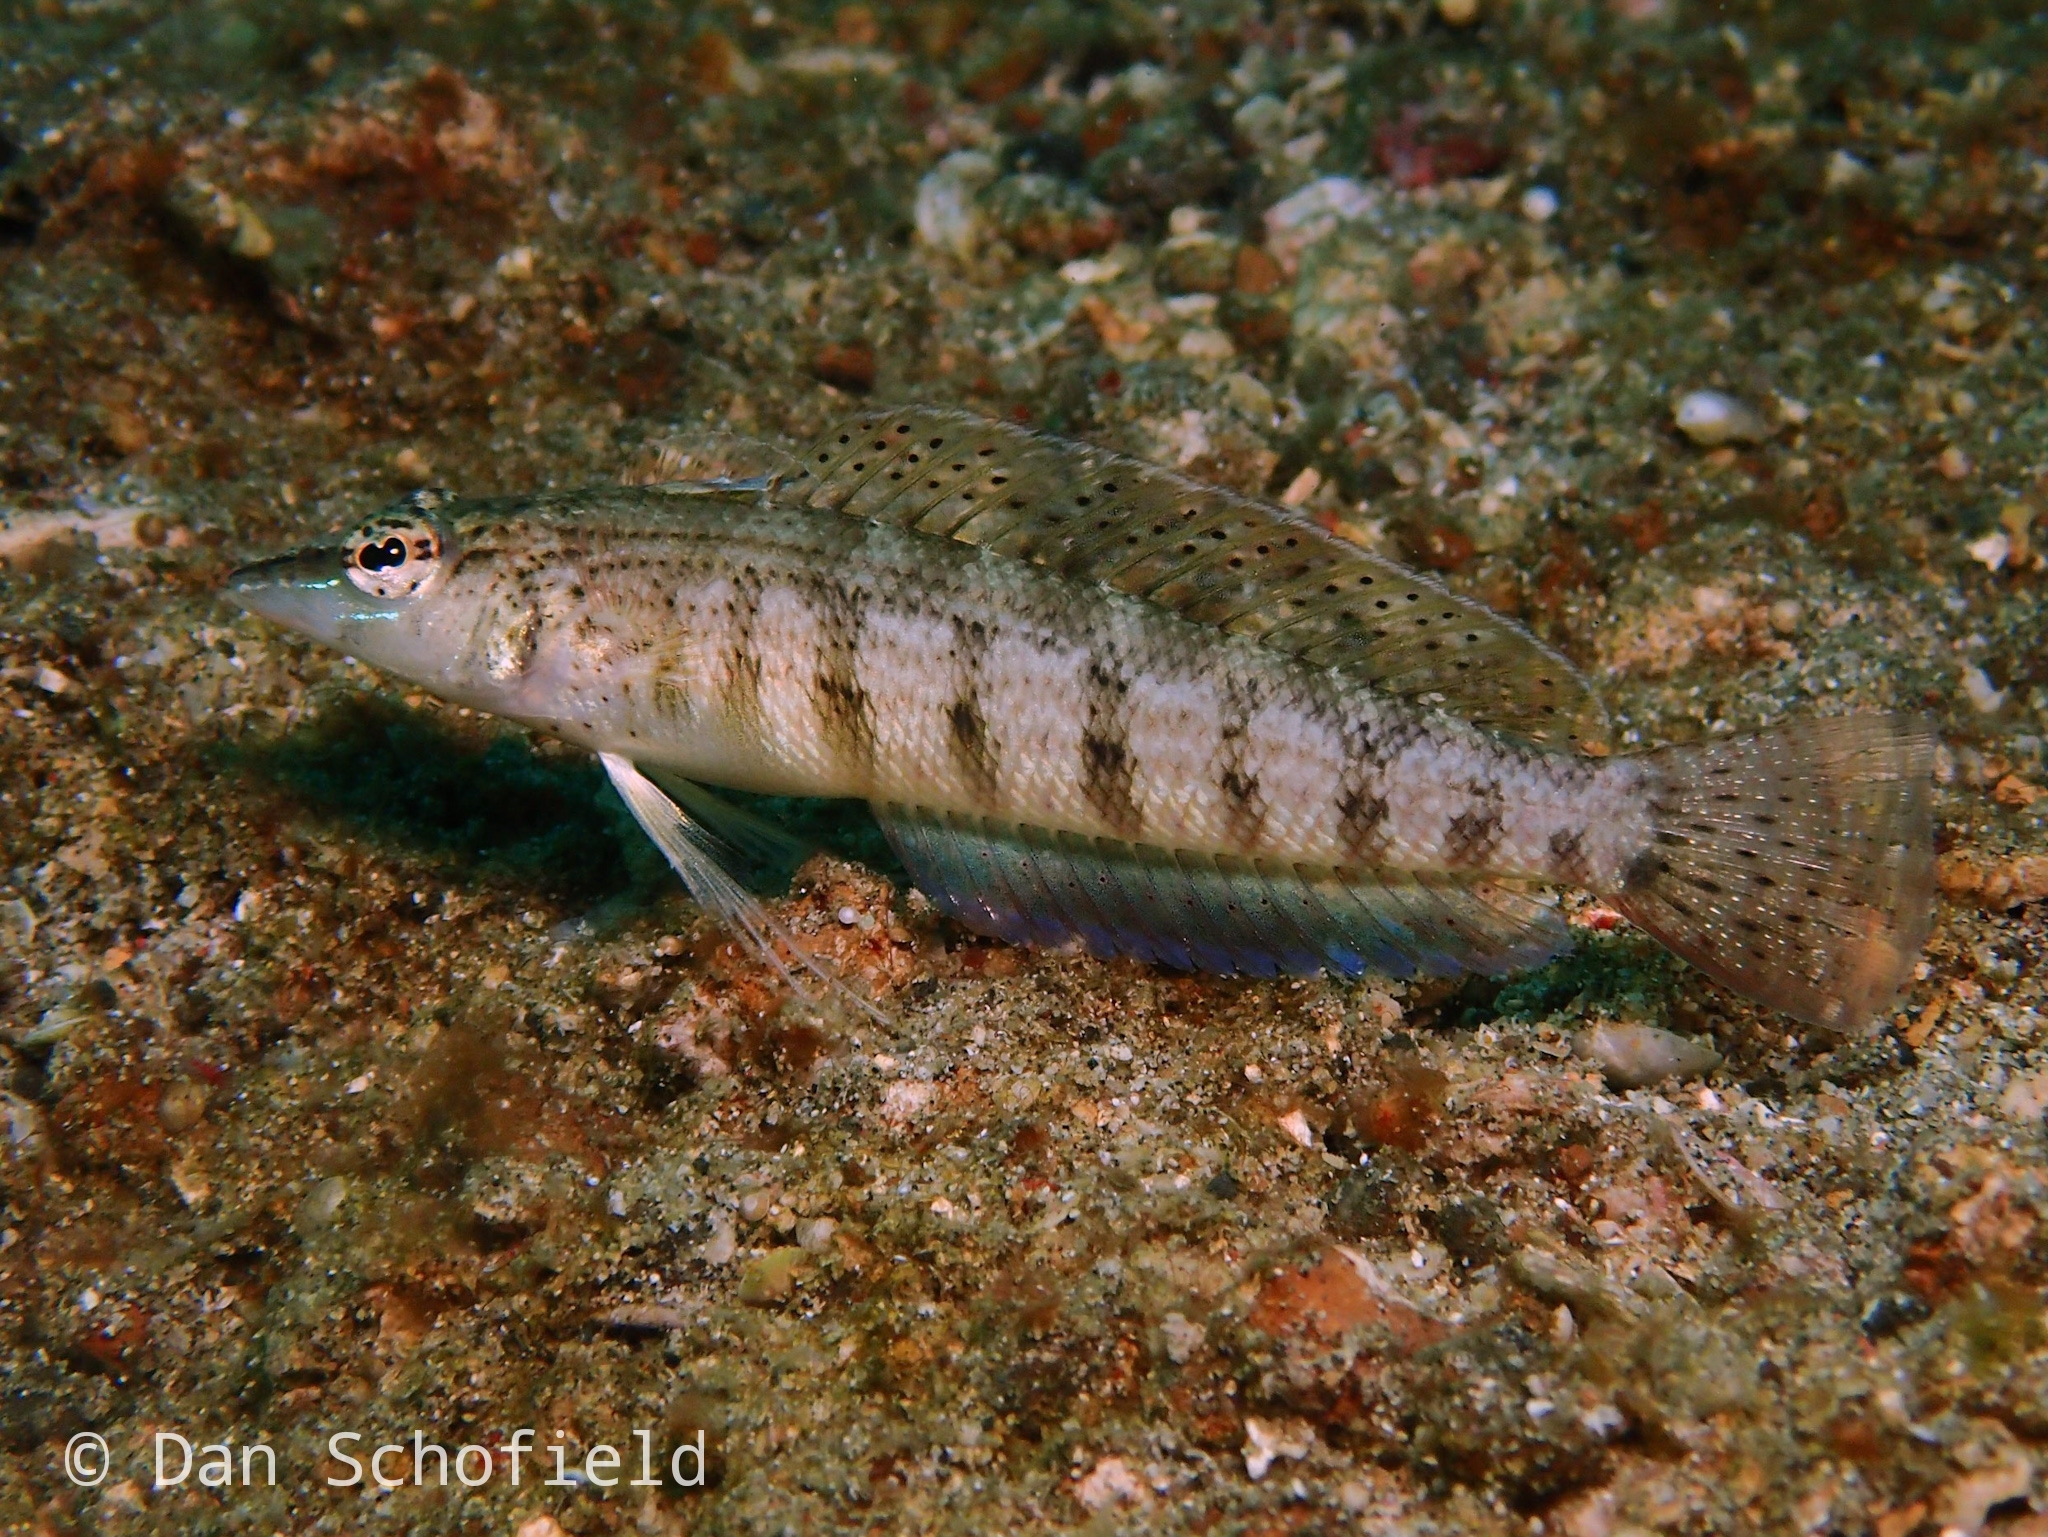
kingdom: Animalia
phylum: Chordata
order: Perciformes
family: Pinguipedidae
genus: Parapercis
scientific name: Parapercis lineopunctata
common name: Nosestripe sandperch
